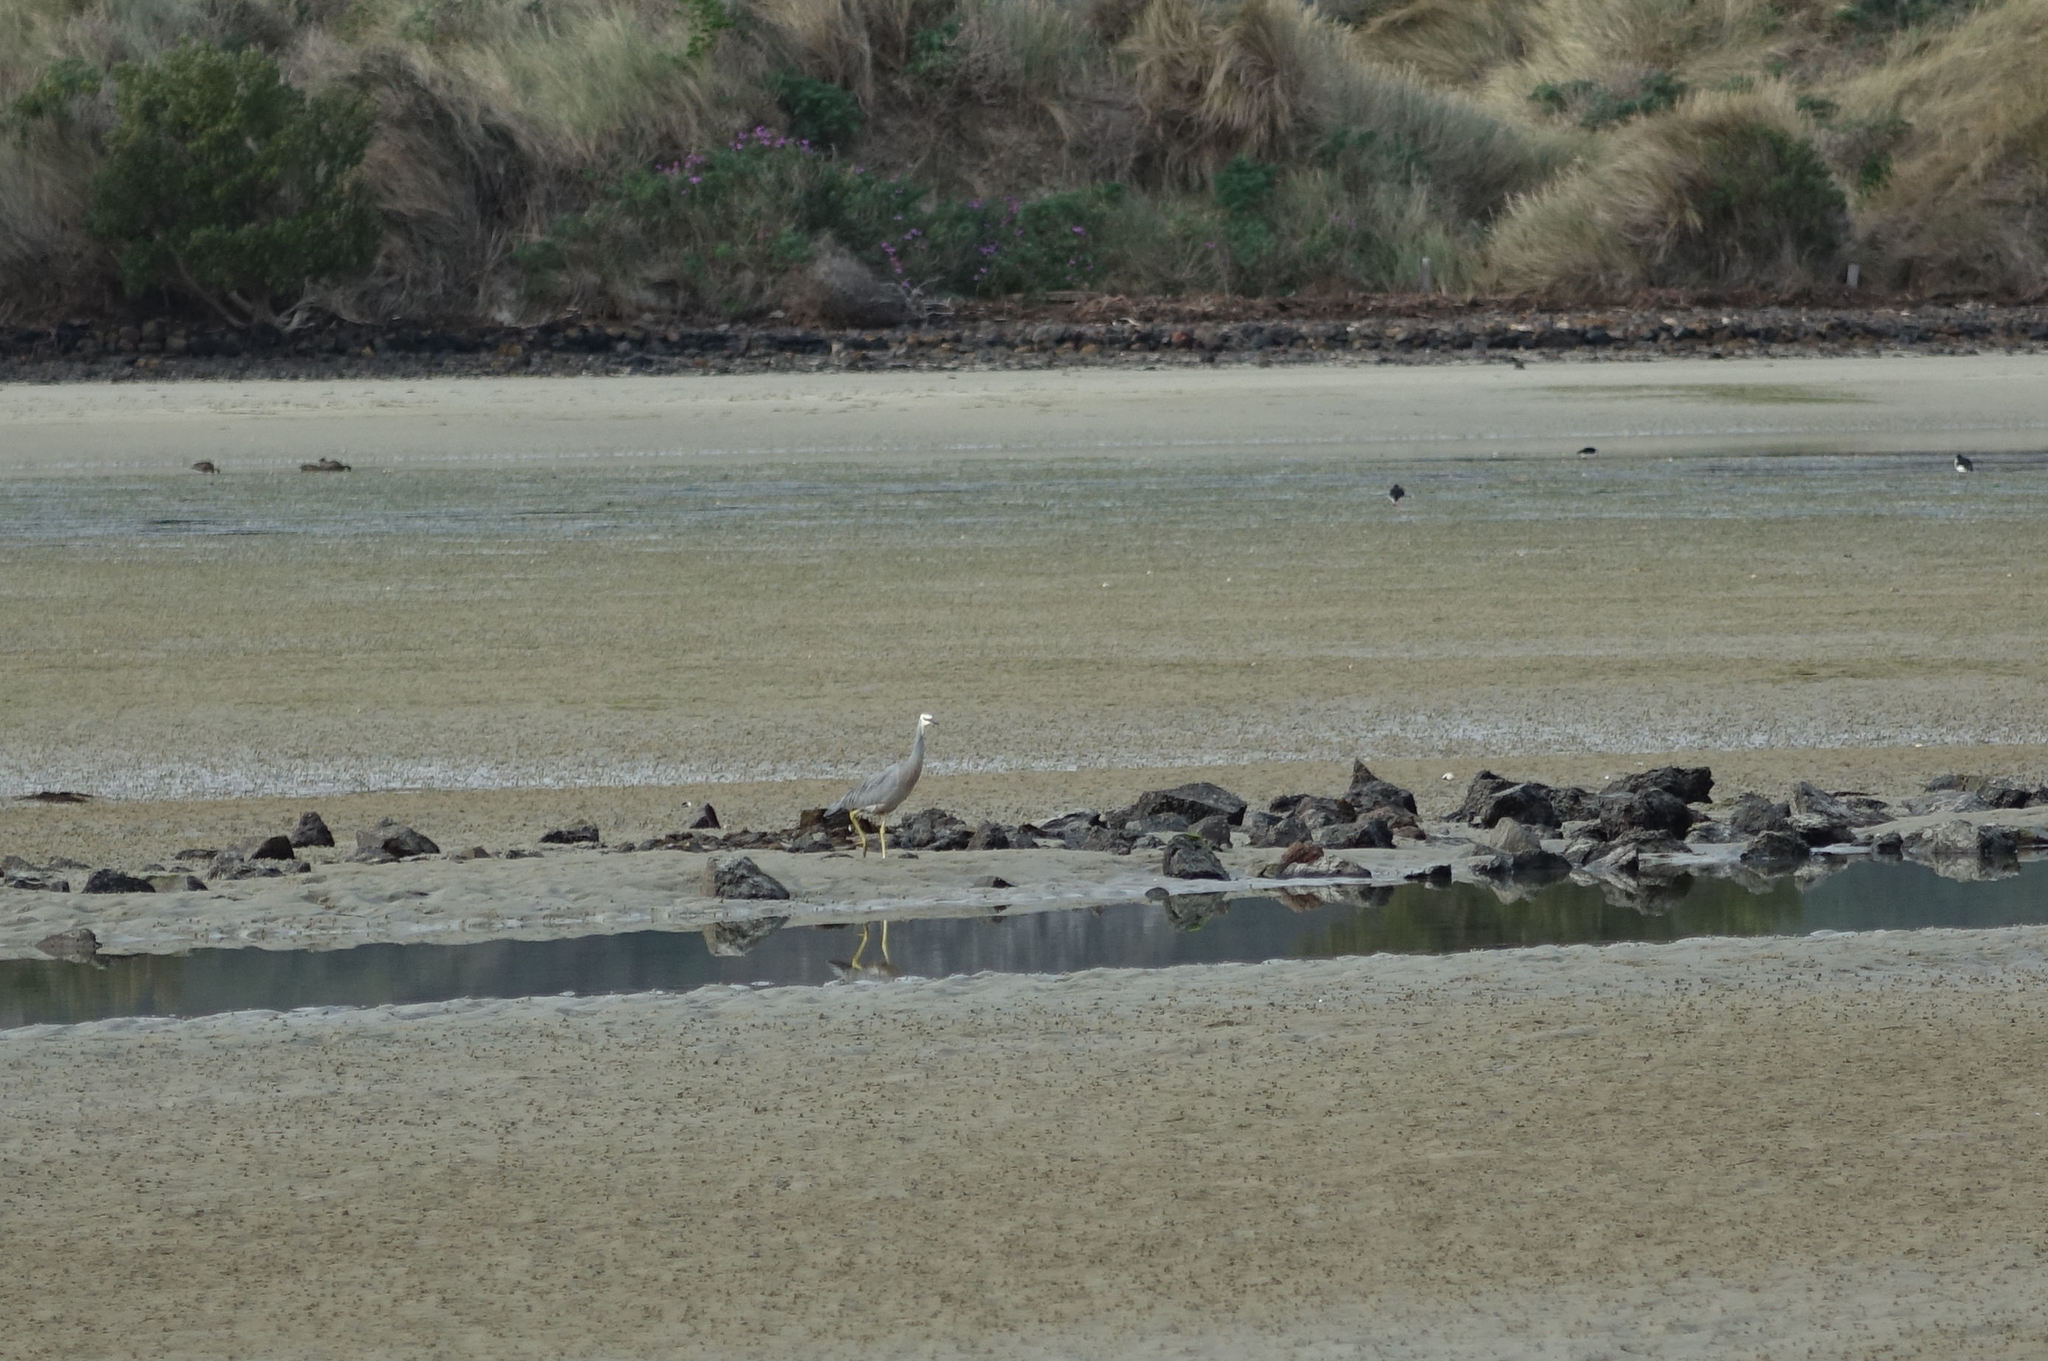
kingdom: Animalia
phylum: Chordata
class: Aves
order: Pelecaniformes
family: Ardeidae
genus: Egretta
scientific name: Egretta novaehollandiae
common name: White-faced heron
